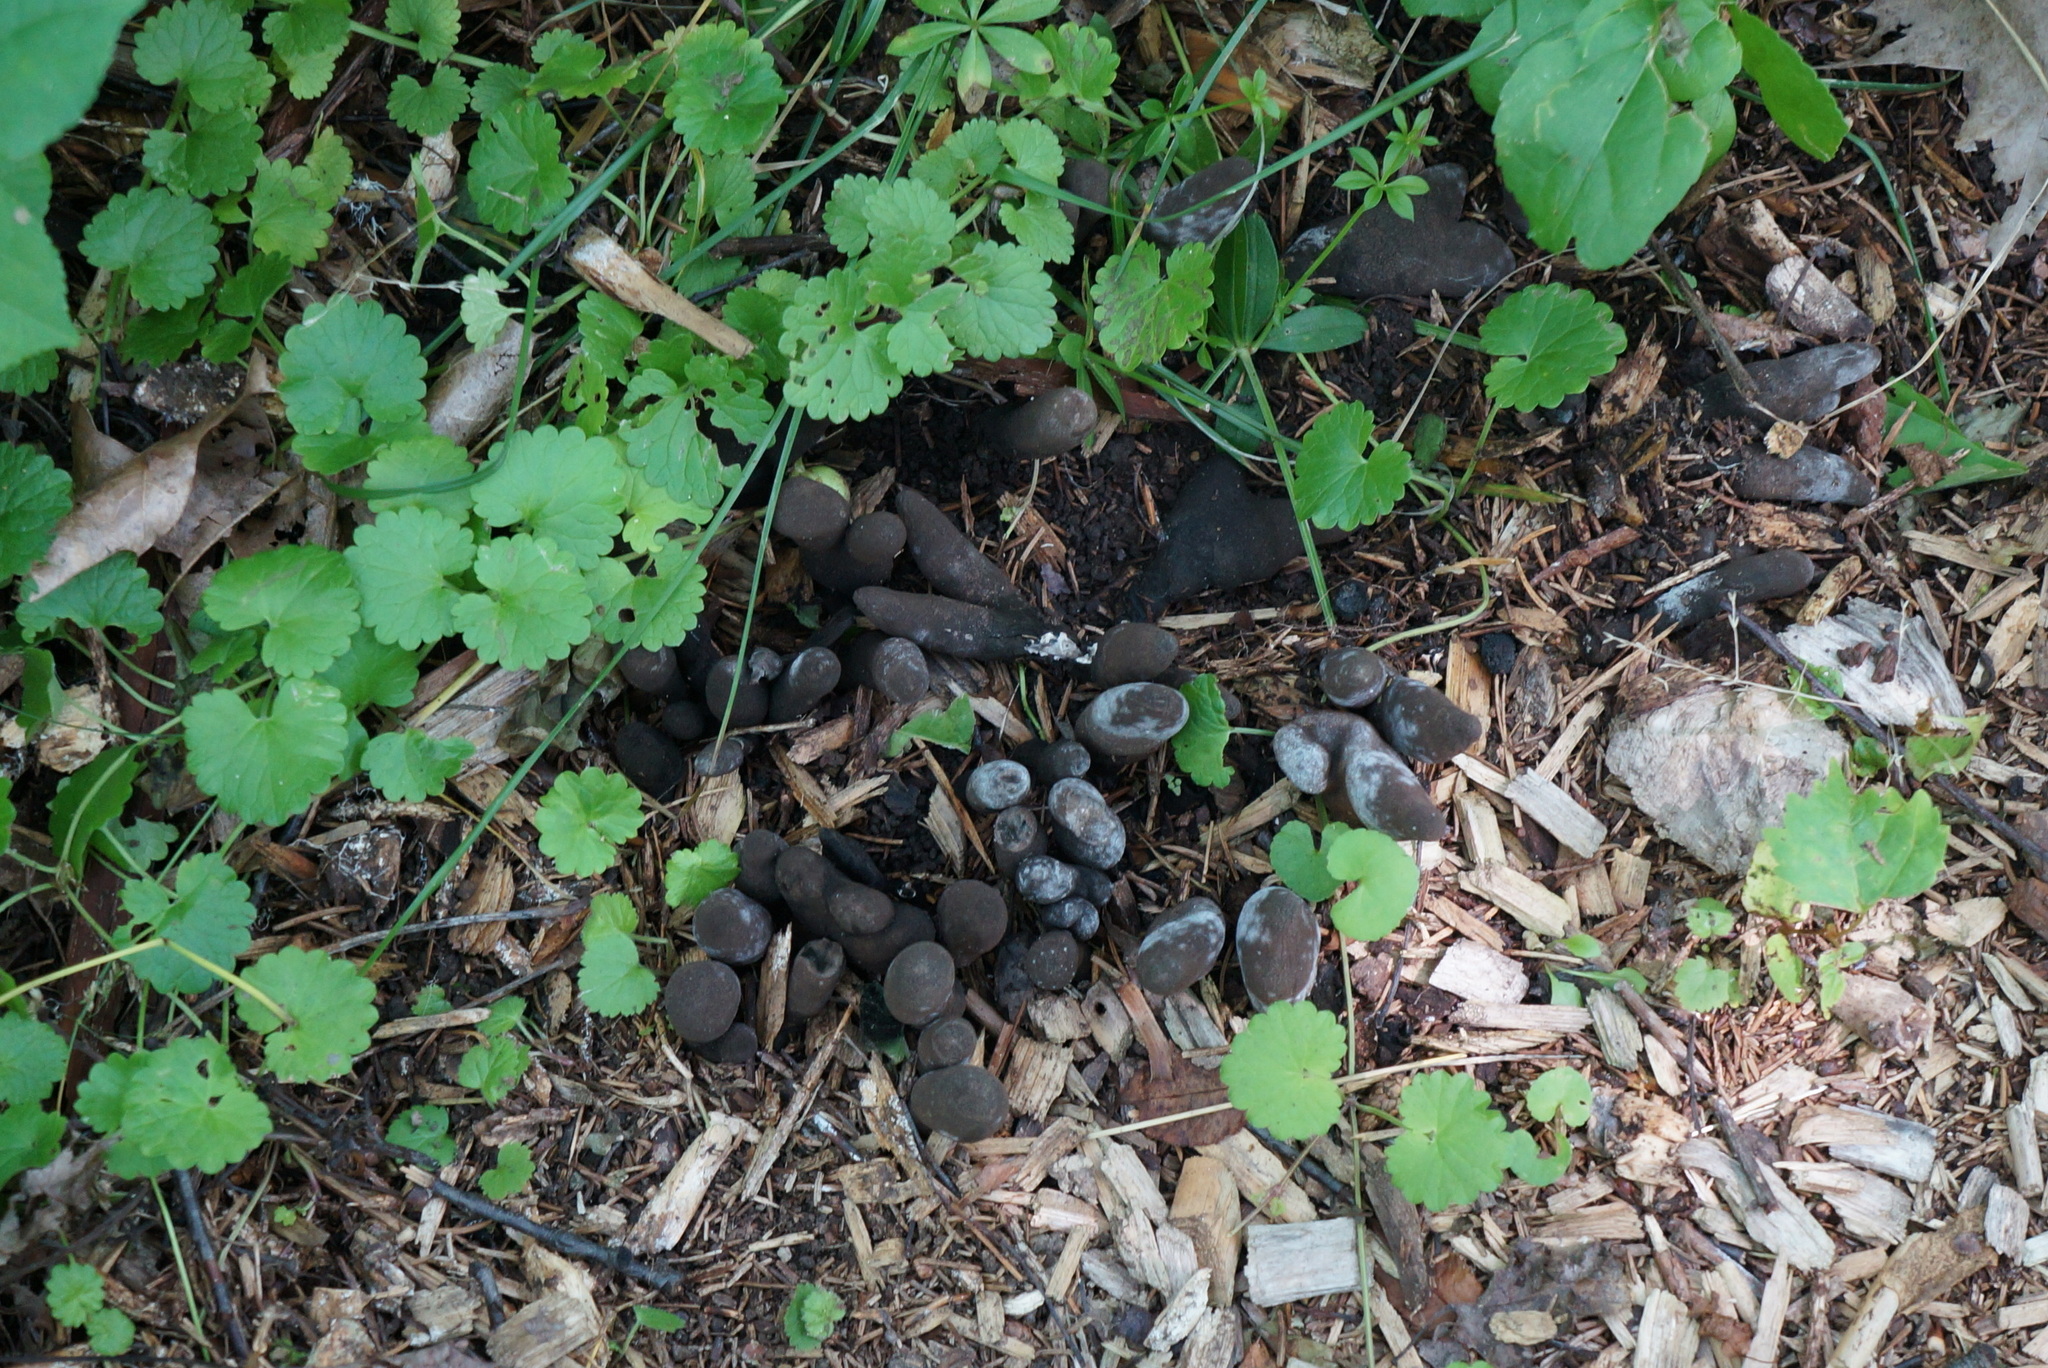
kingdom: Fungi
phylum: Ascomycota
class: Sordariomycetes
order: Xylariales
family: Xylariaceae
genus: Xylaria
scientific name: Xylaria polymorpha
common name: Dead man's fingers
